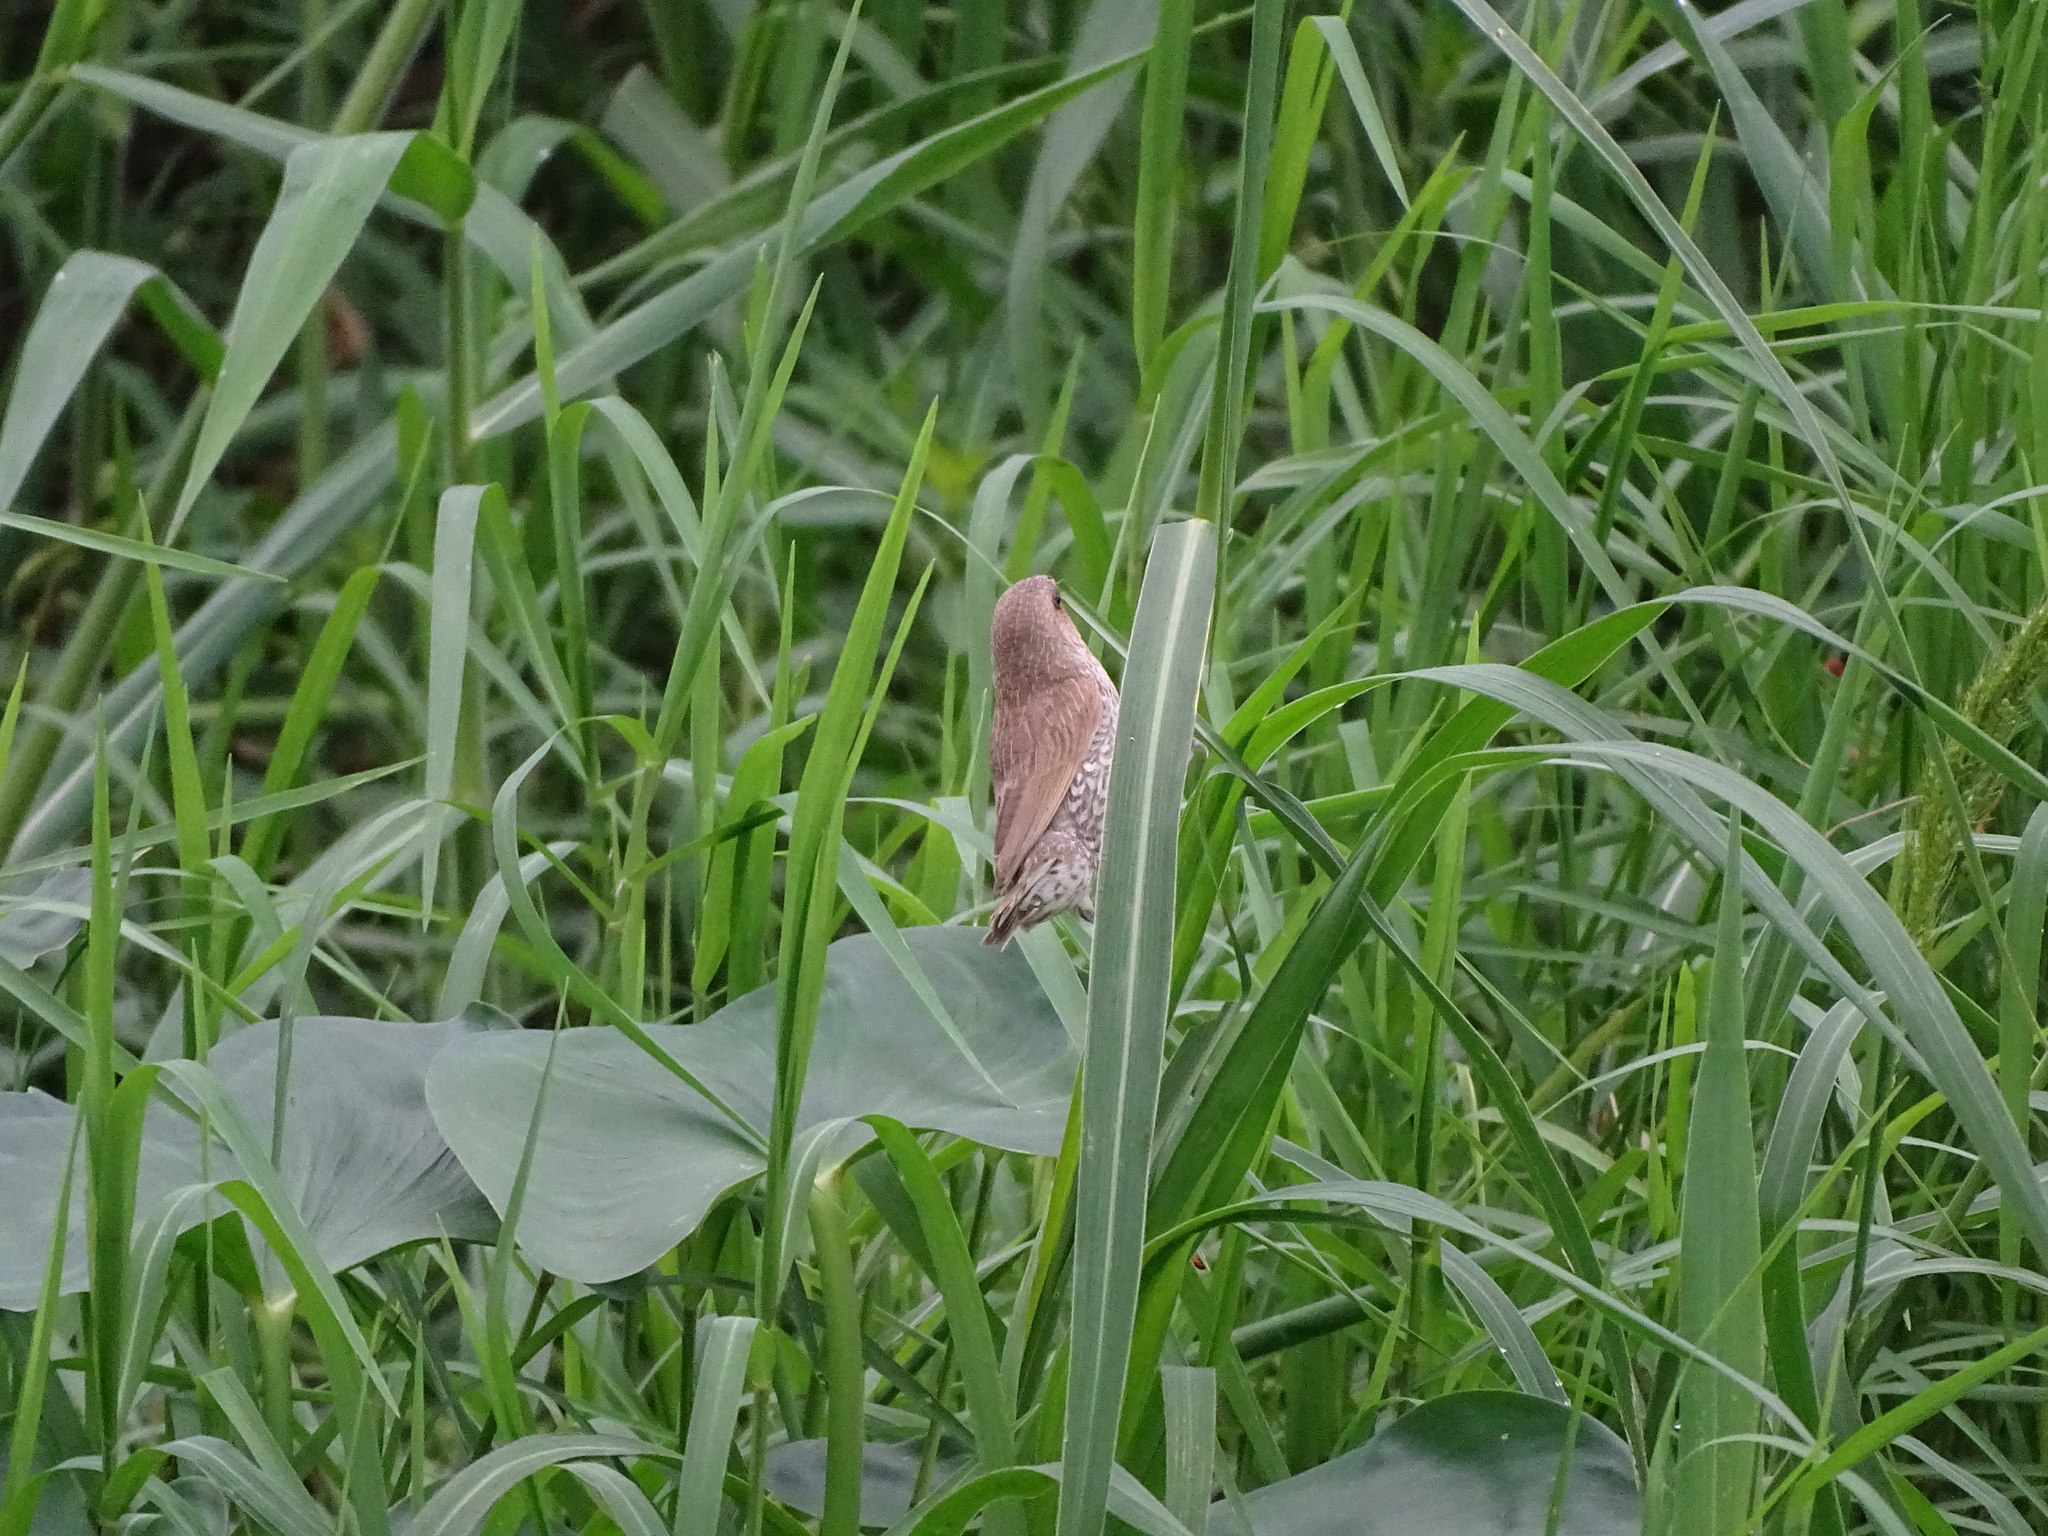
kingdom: Animalia
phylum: Chordata
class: Aves
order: Passeriformes
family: Estrildidae
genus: Lonchura
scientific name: Lonchura punctulata
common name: Scaly-breasted munia
